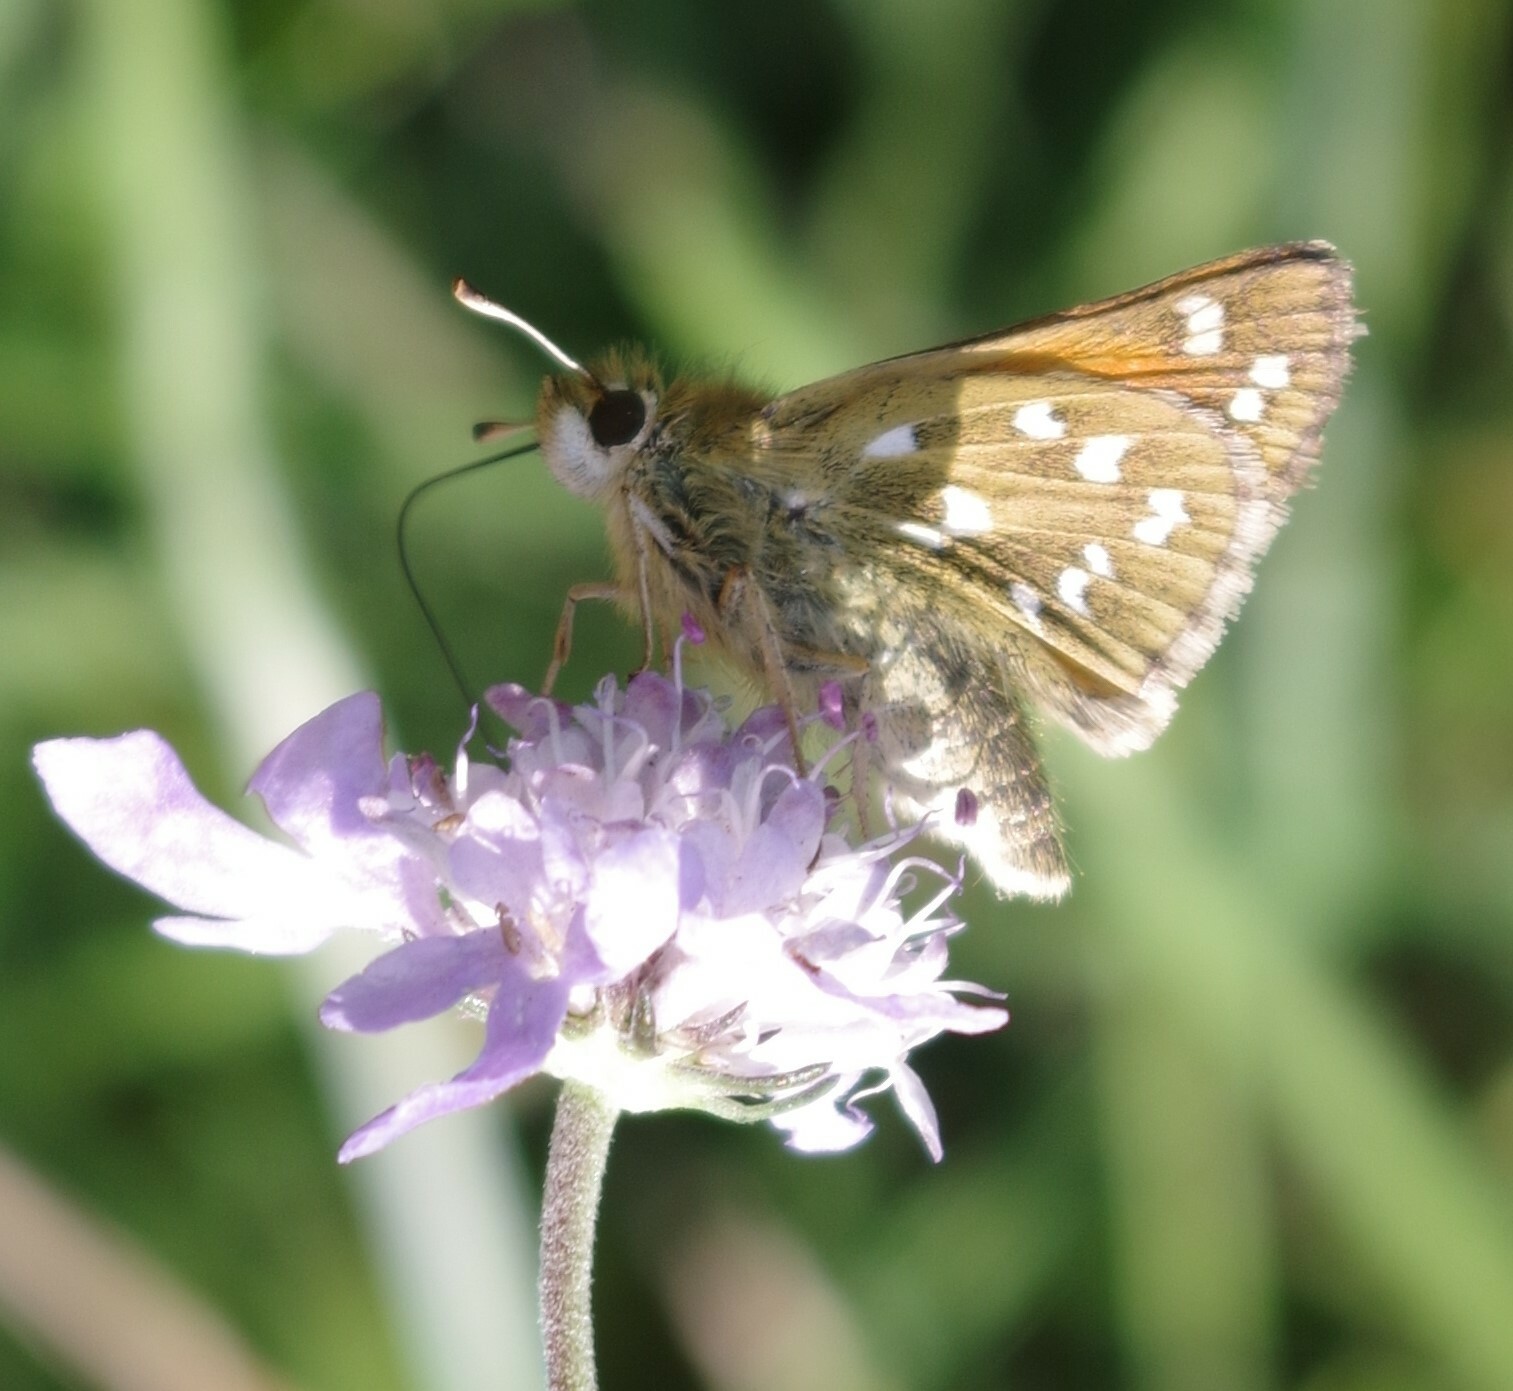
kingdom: Animalia
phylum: Arthropoda
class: Insecta
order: Lepidoptera
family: Hesperiidae
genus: Hesperia
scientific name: Hesperia comma
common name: Common branded skipper
